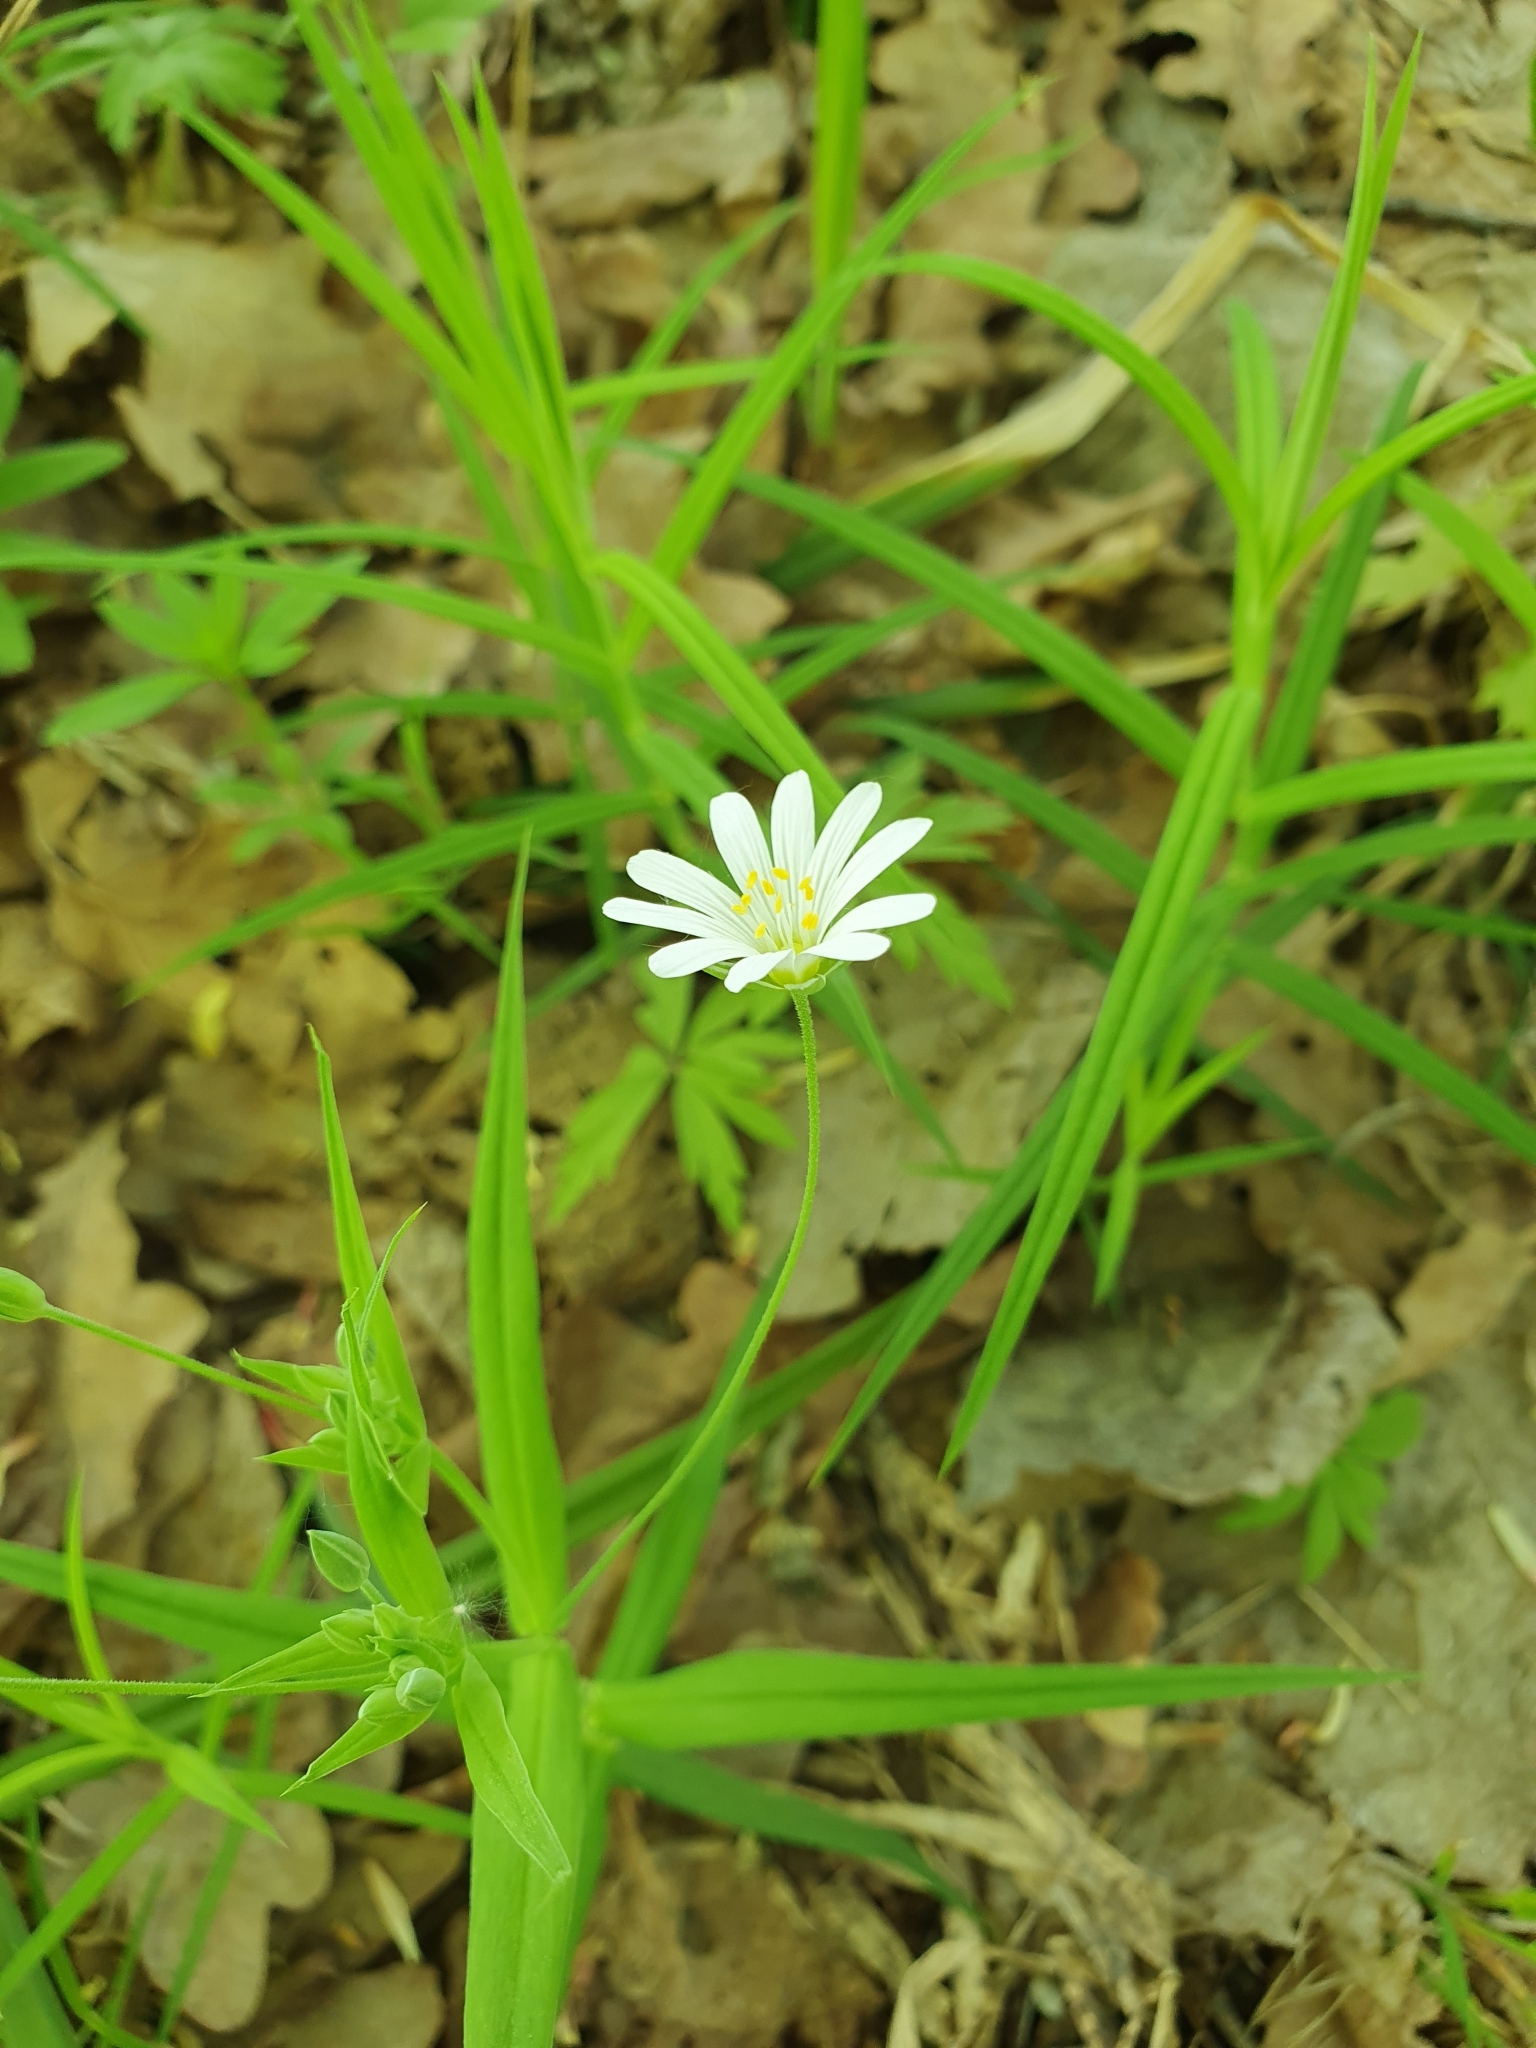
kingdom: Plantae
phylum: Tracheophyta
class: Magnoliopsida
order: Caryophyllales
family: Caryophyllaceae
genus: Rabelera
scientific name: Rabelera holostea
